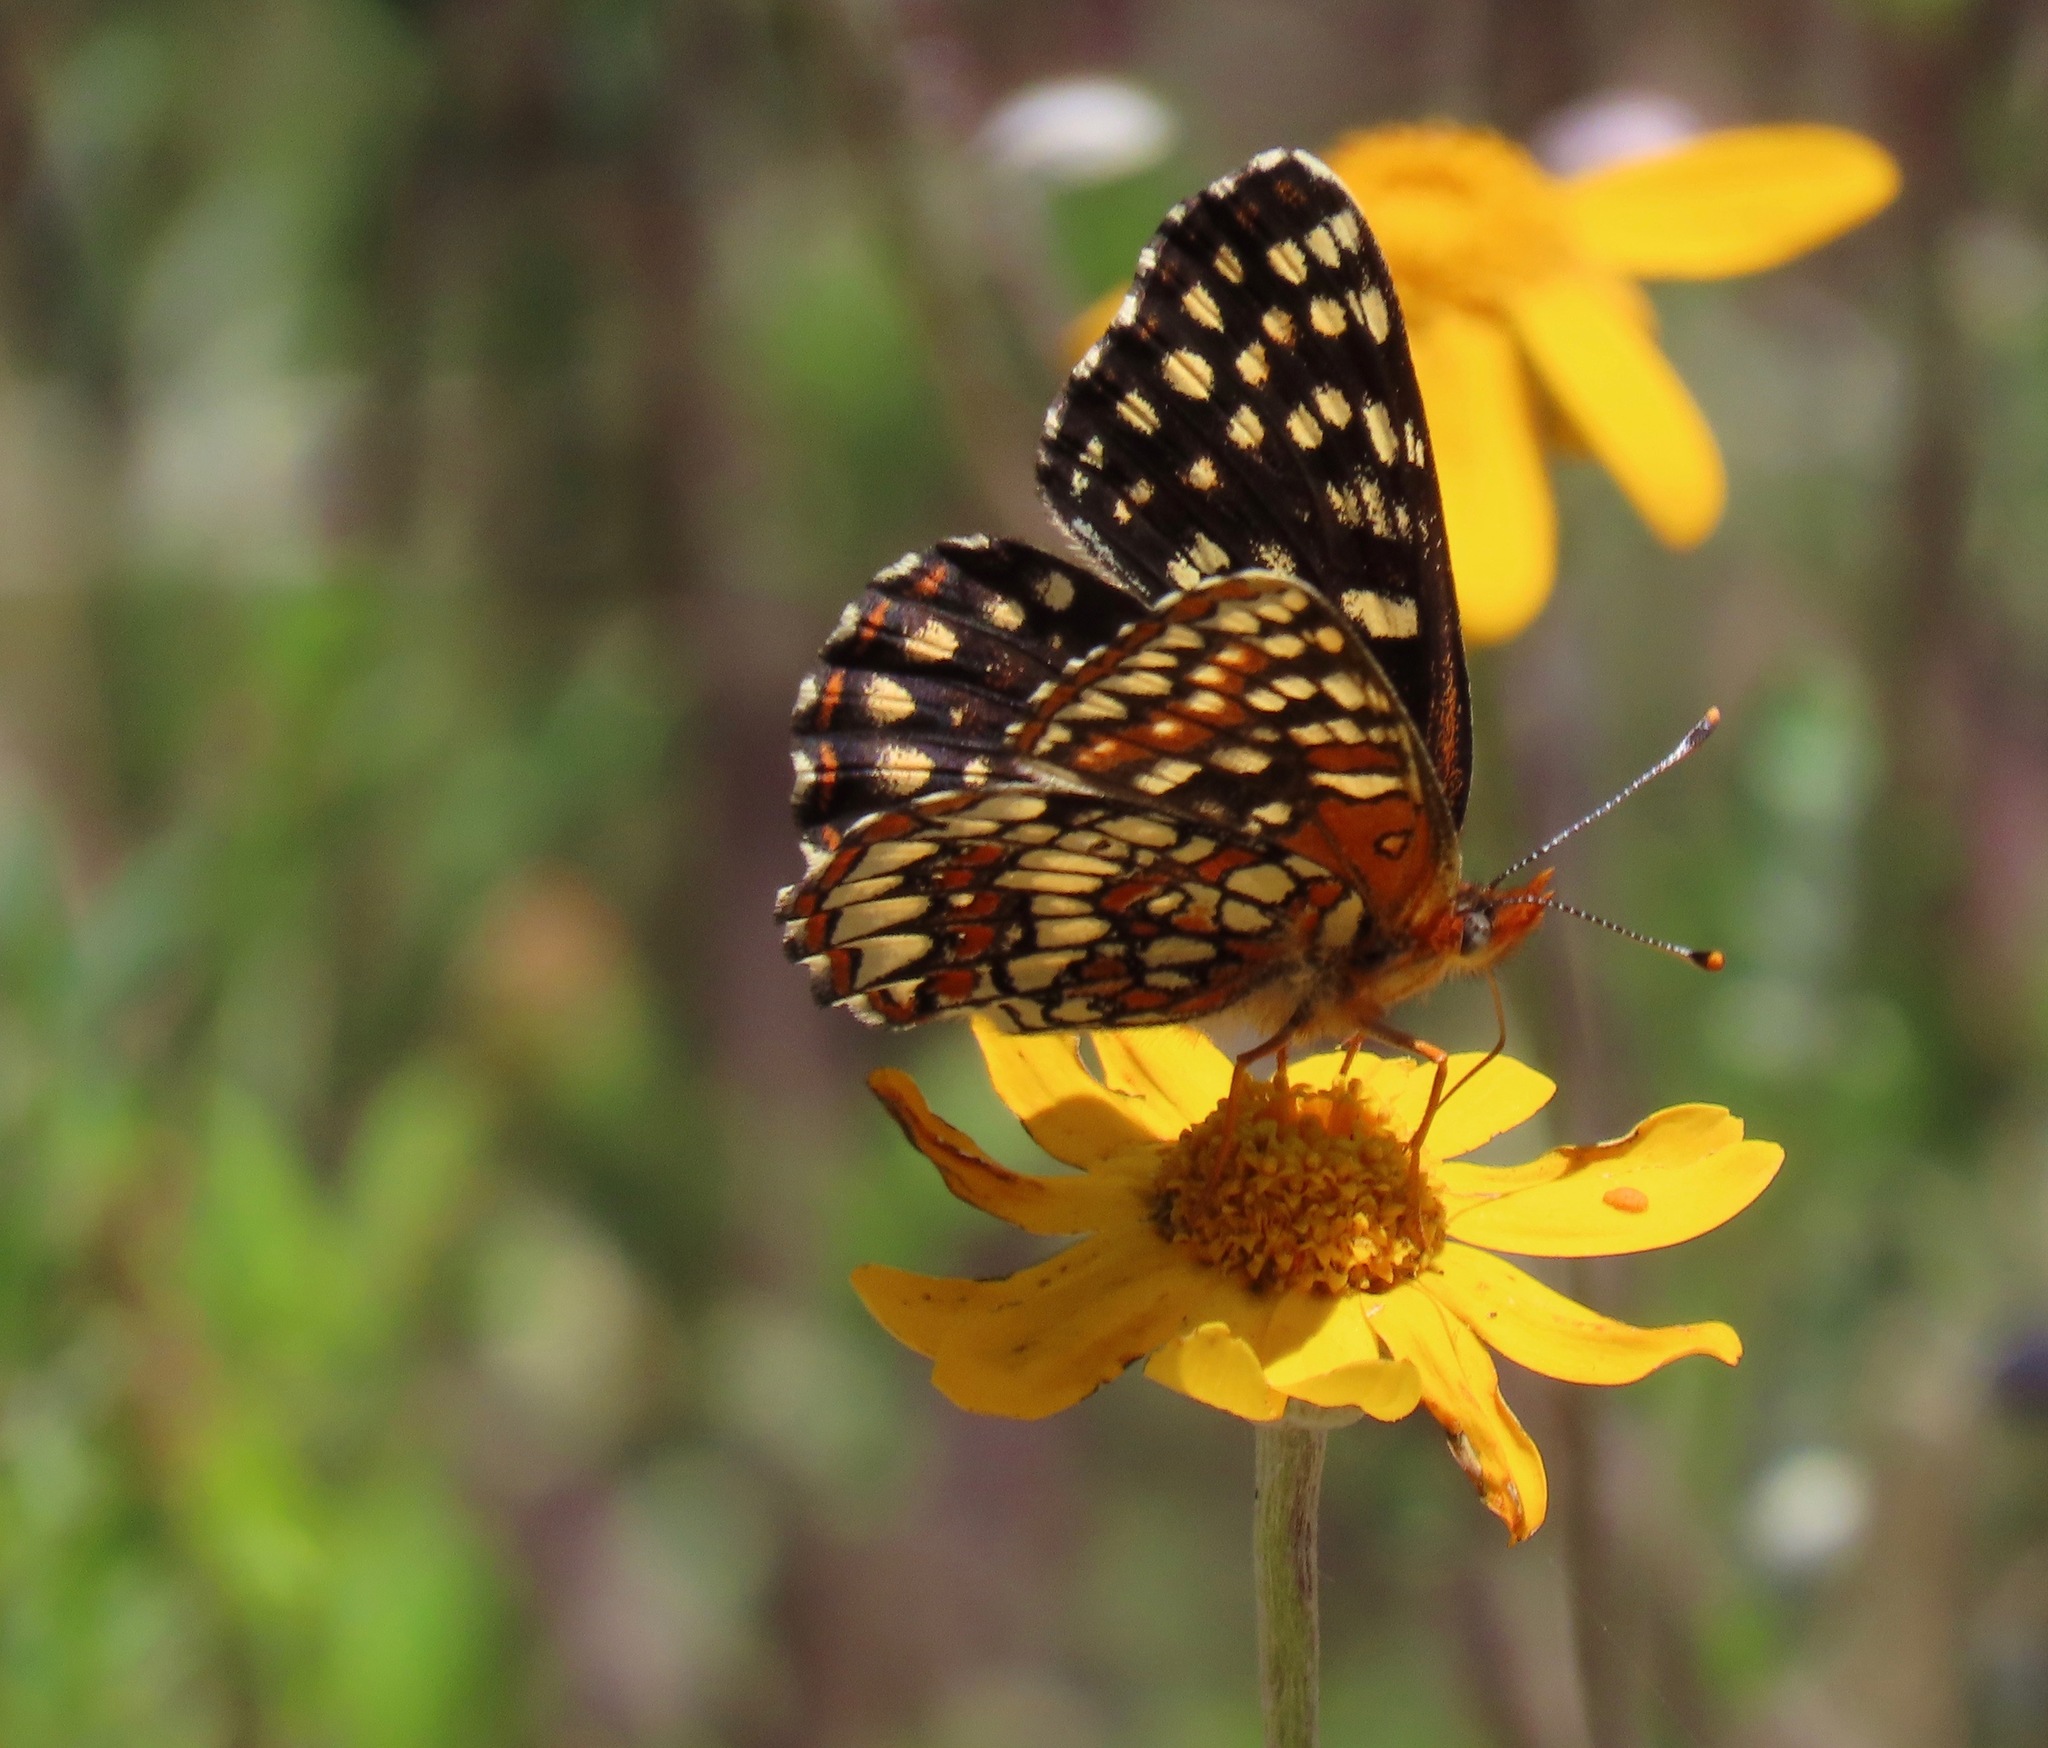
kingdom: Animalia
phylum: Arthropoda
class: Insecta
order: Lepidoptera
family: Nymphalidae
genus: Chlosyne
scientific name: Chlosyne palla
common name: Northern checkerspot
